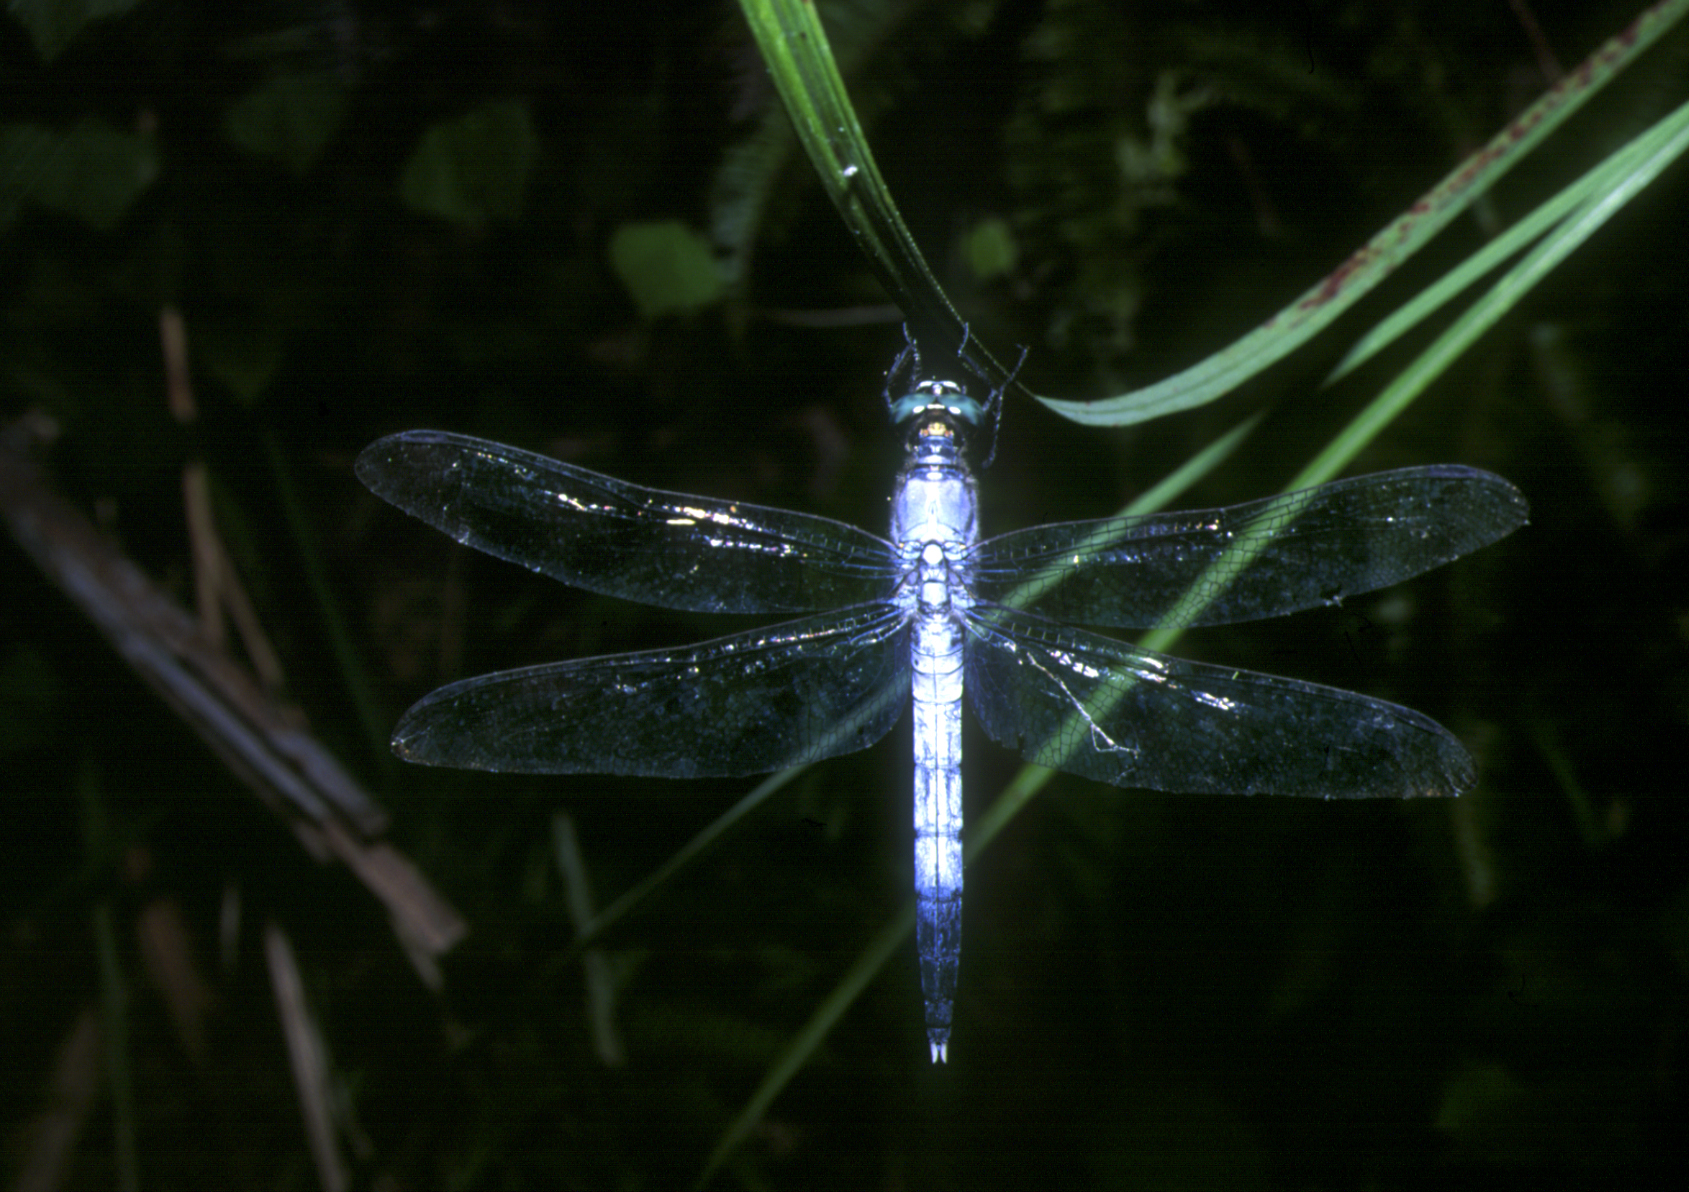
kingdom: Animalia
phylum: Arthropoda
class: Insecta
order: Odonata
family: Libellulidae
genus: Orthetrum
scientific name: Orthetrum albistylum
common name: White-tailed skimmer
